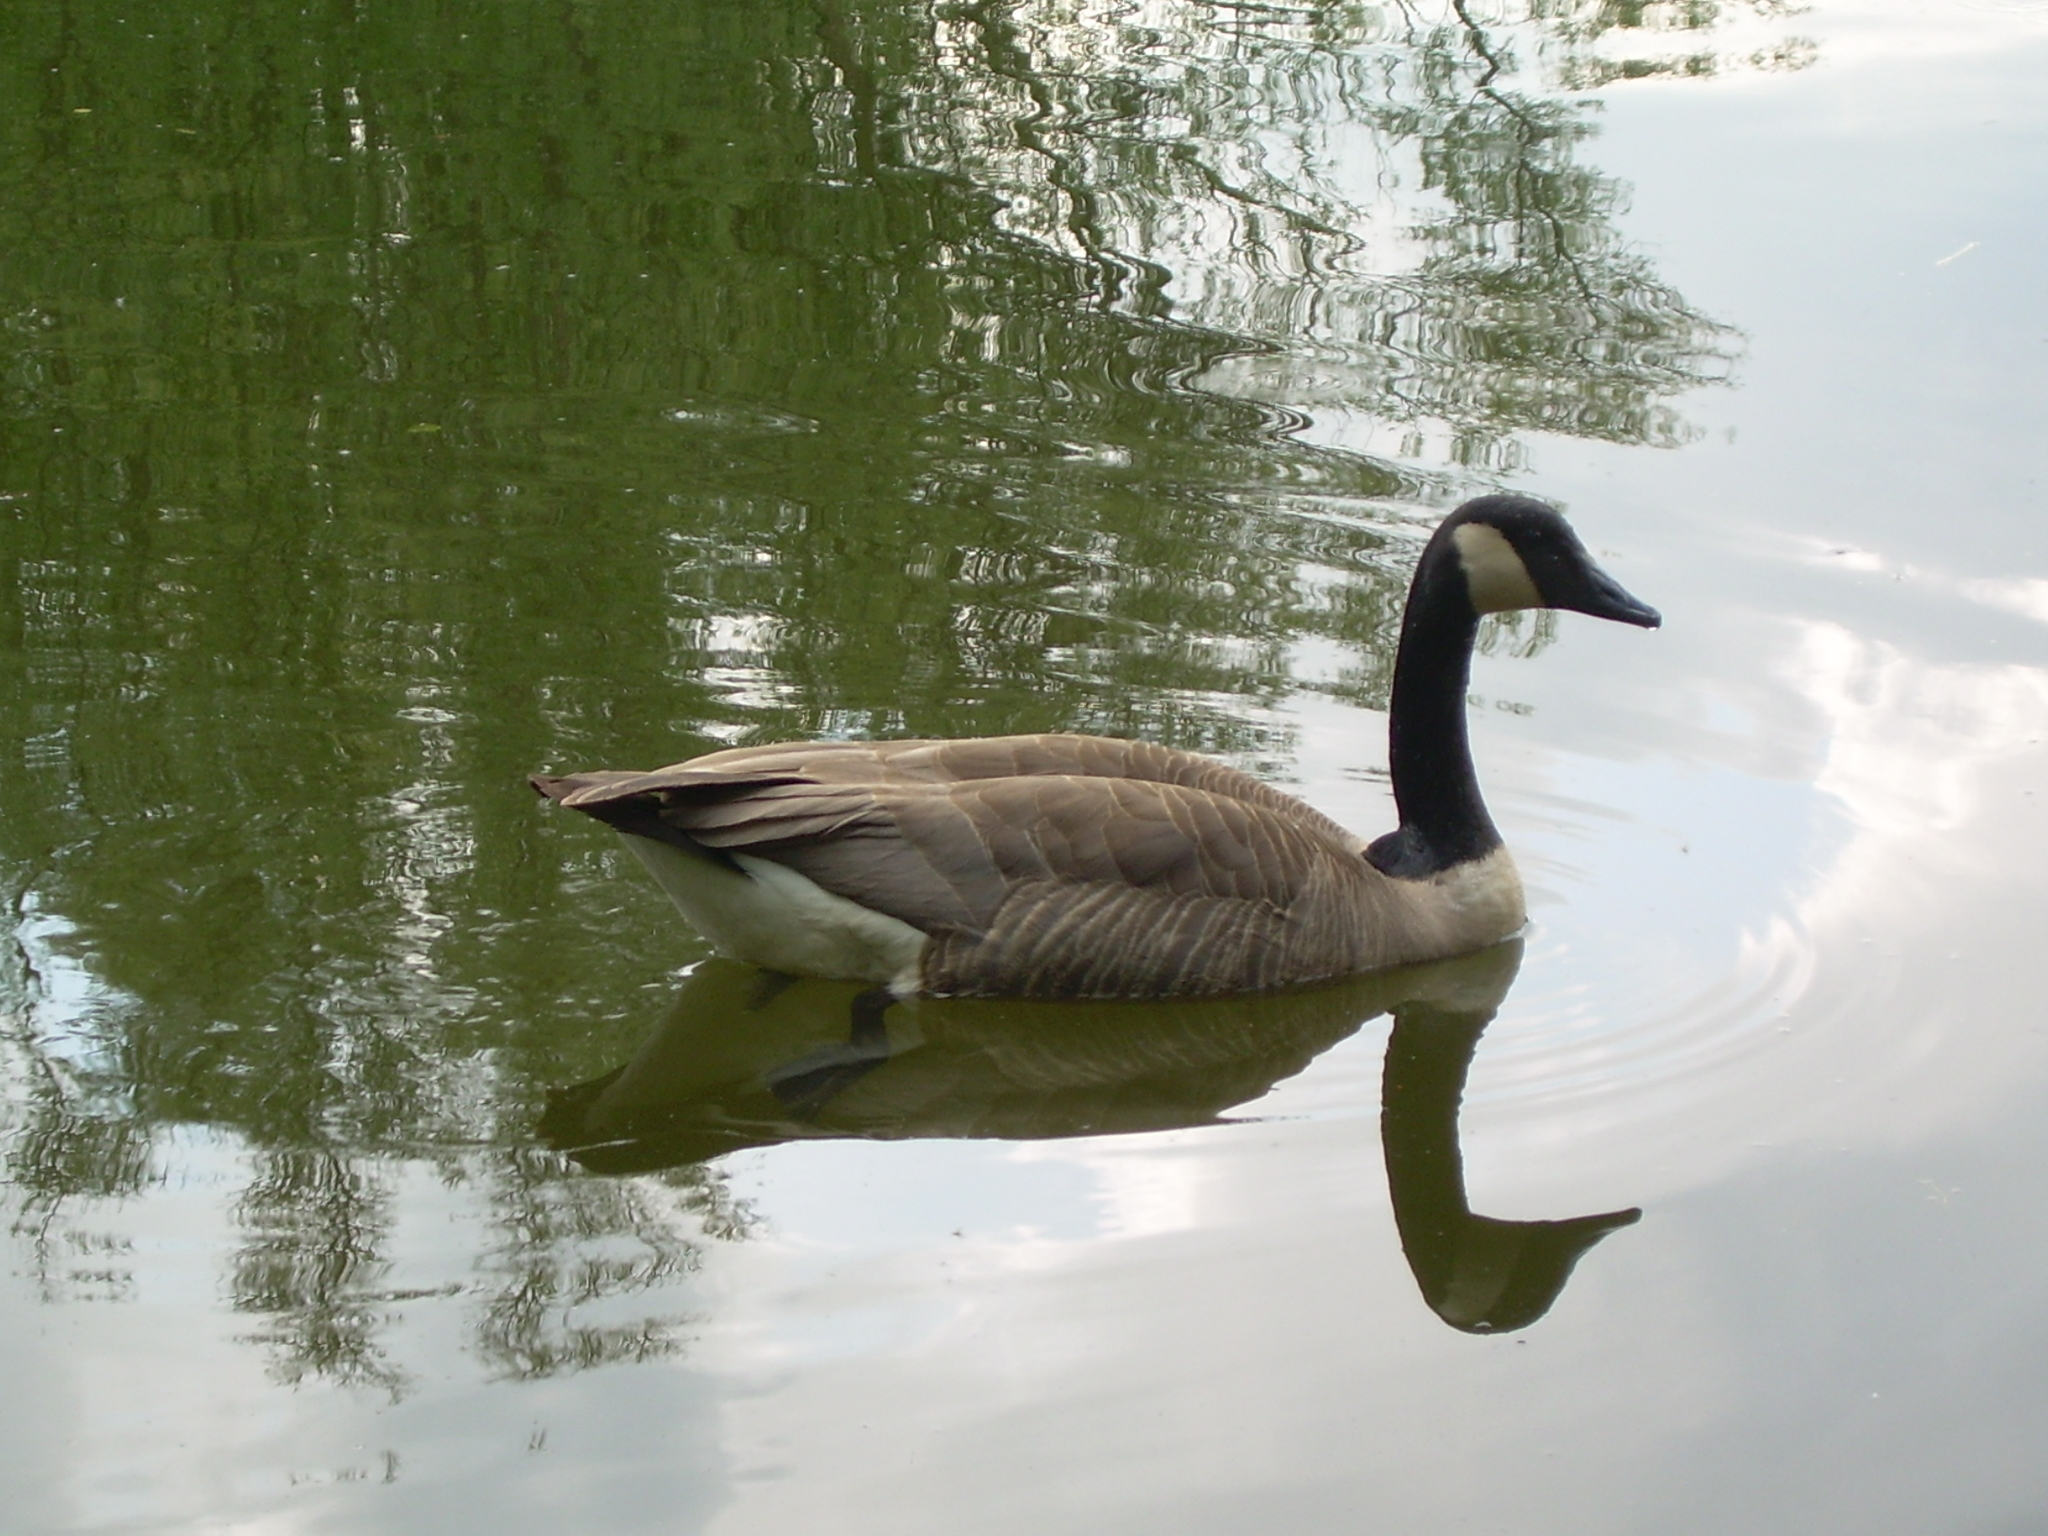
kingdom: Animalia
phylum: Chordata
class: Aves
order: Anseriformes
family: Anatidae
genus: Branta
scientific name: Branta canadensis
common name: Canada goose
